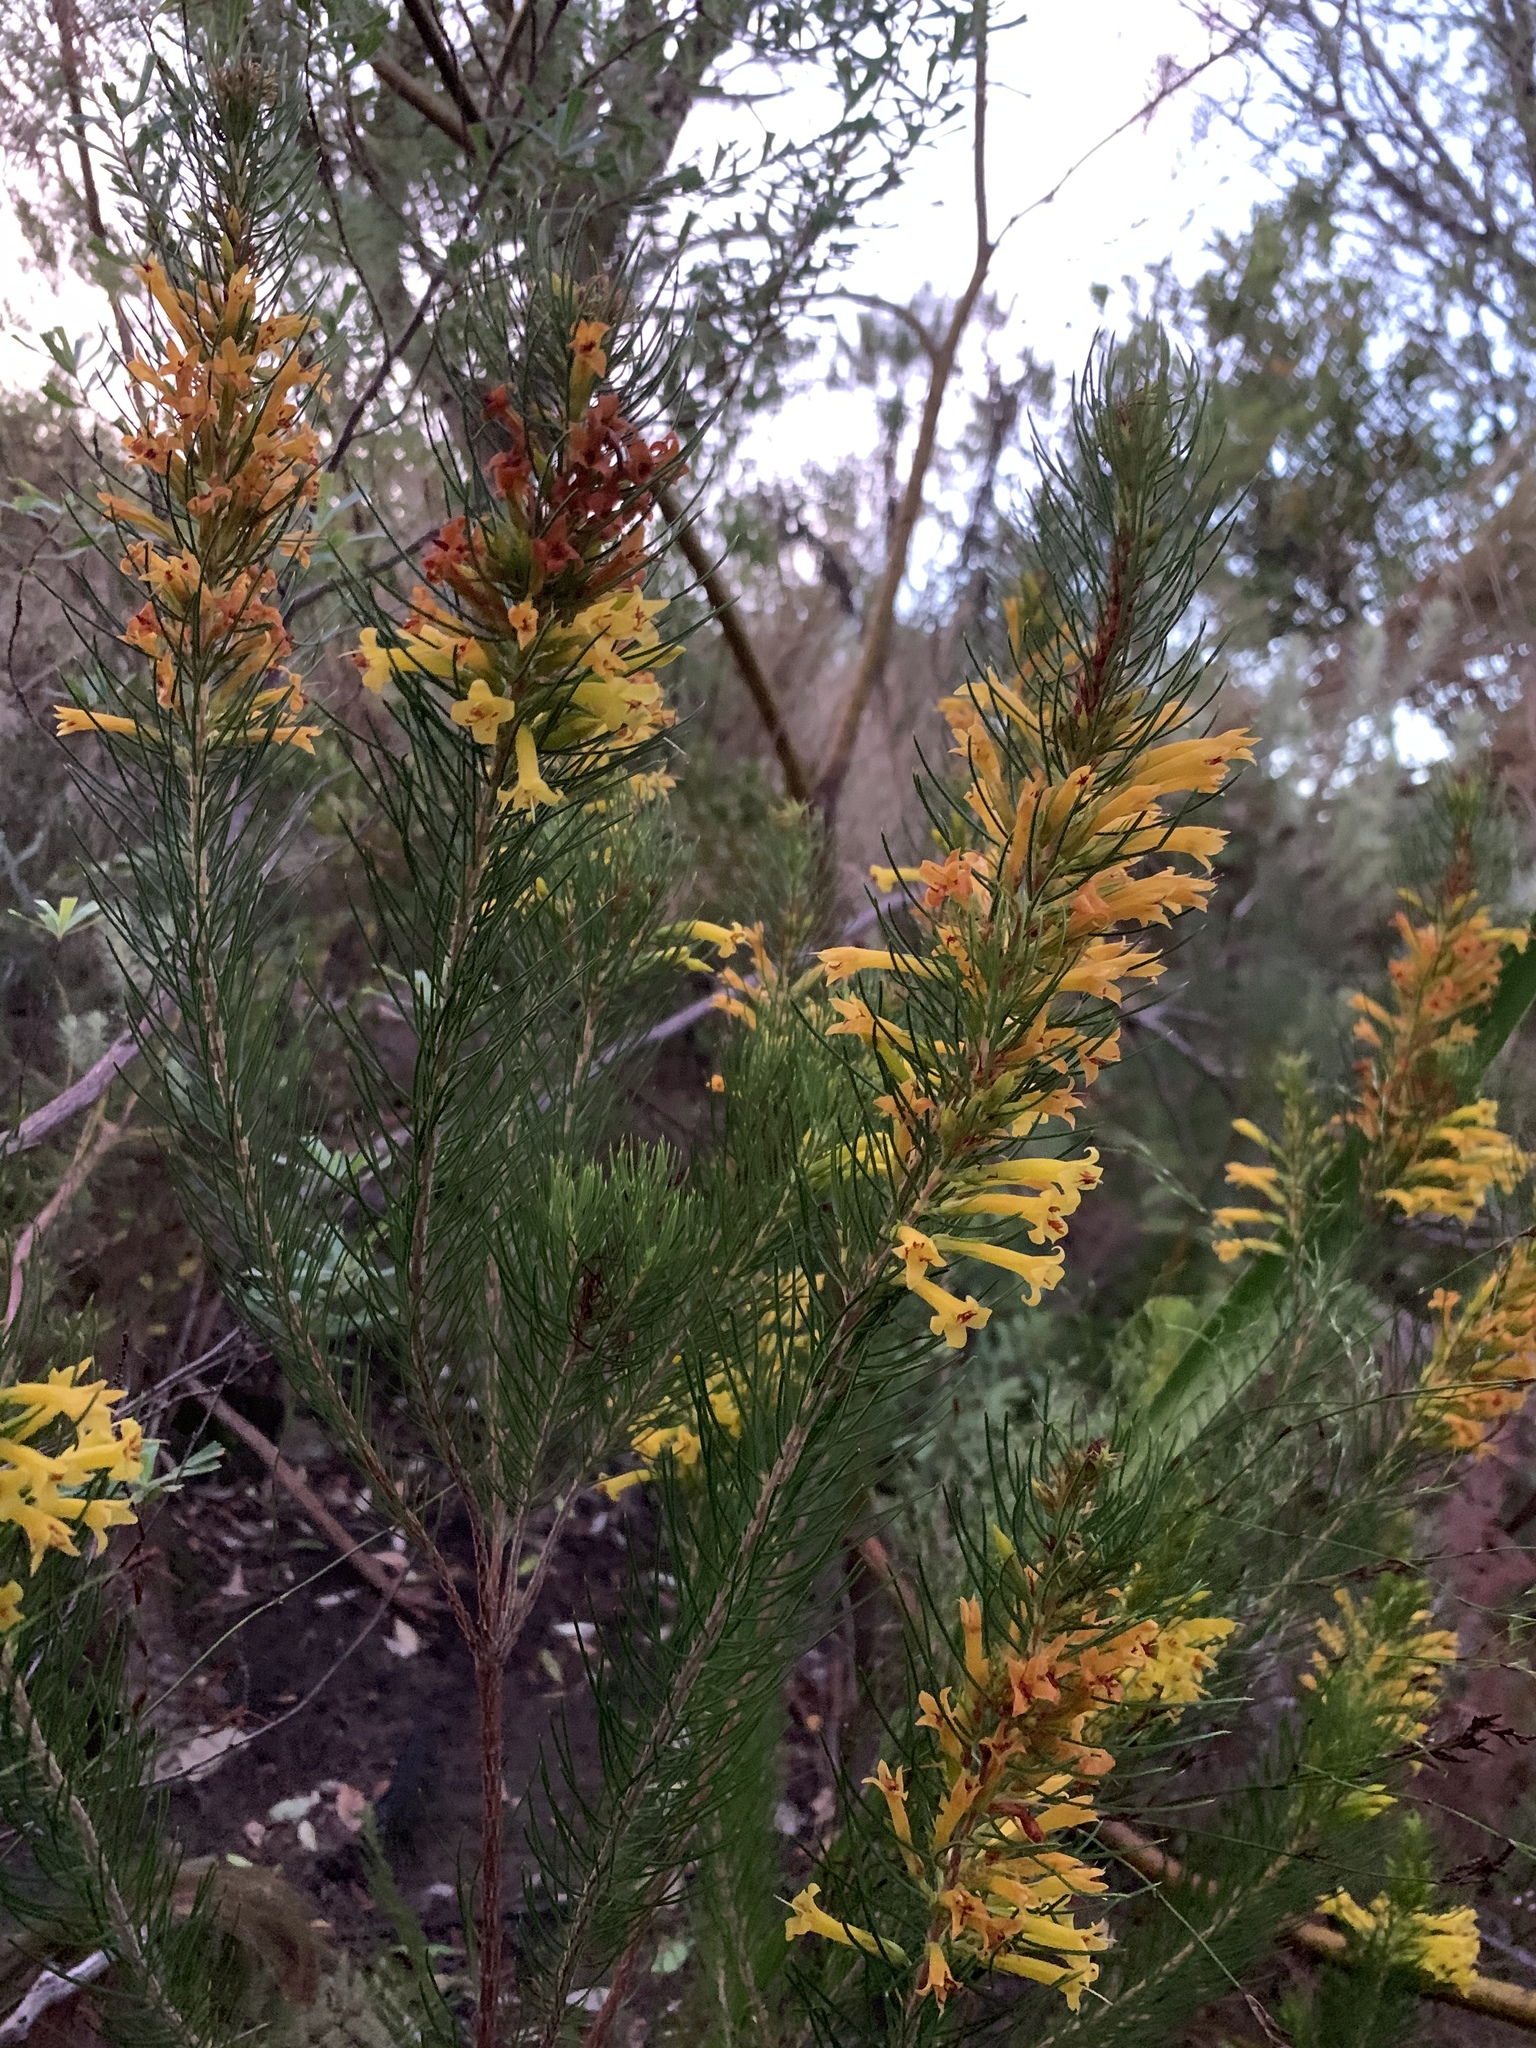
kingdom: Plantae
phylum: Tracheophyta
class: Magnoliopsida
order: Ericales
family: Ericaceae
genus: Erica
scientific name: Erica grandiflora
